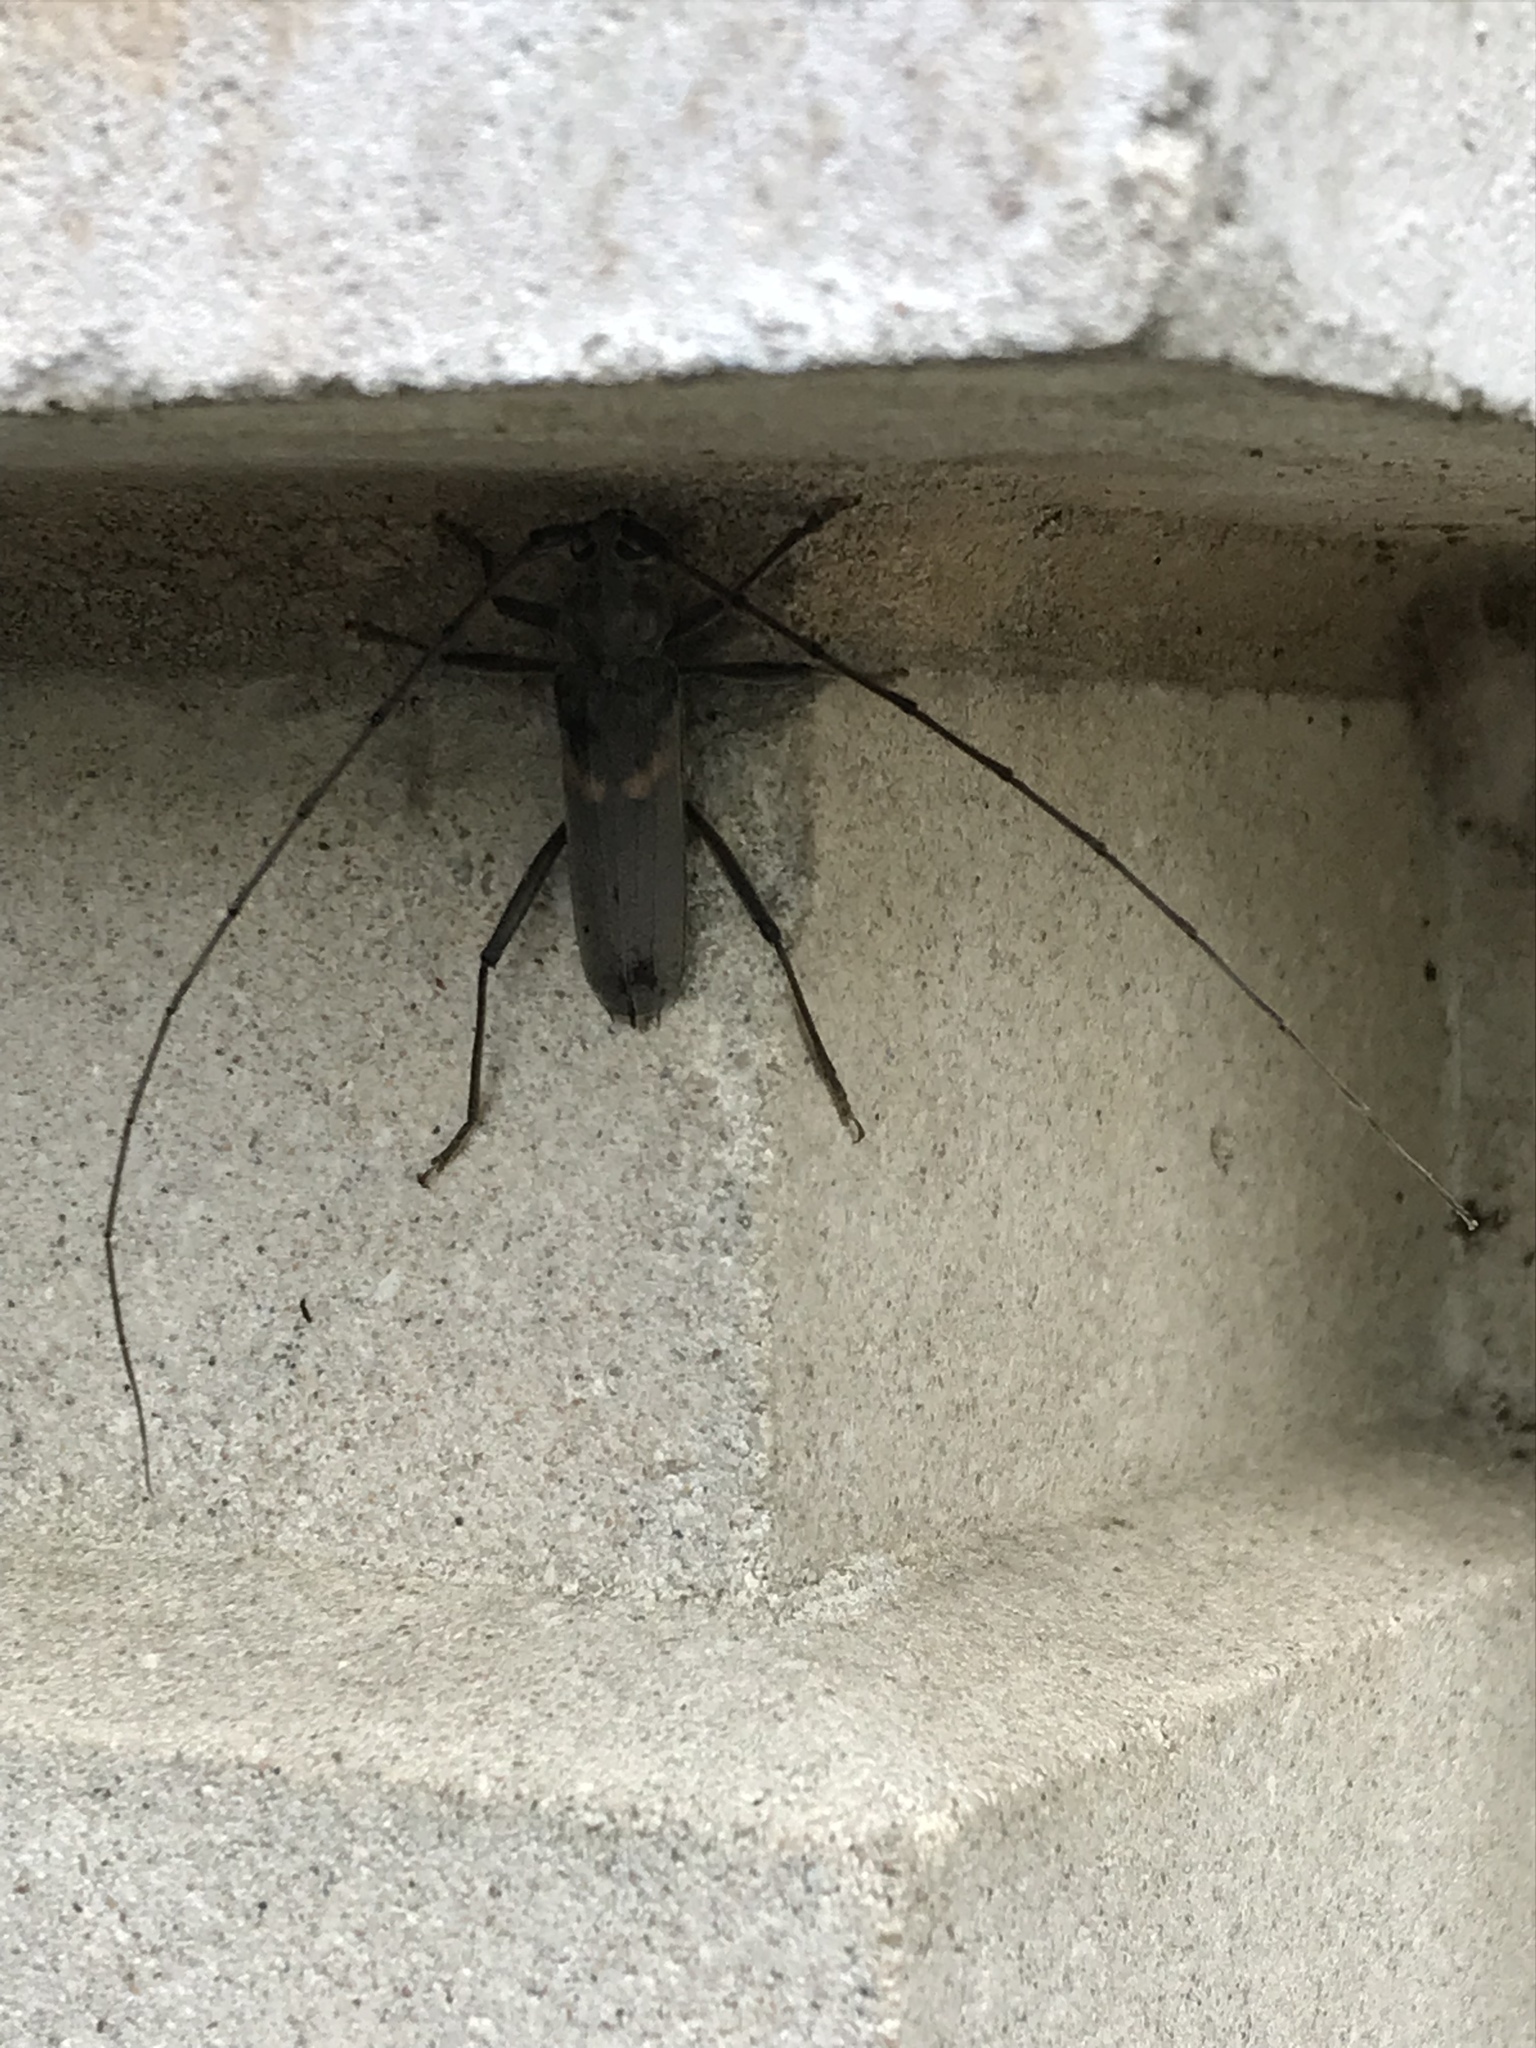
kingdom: Animalia
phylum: Arthropoda
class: Insecta
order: Coleoptera
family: Cerambycidae
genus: Knulliana
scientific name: Knulliana cincta
